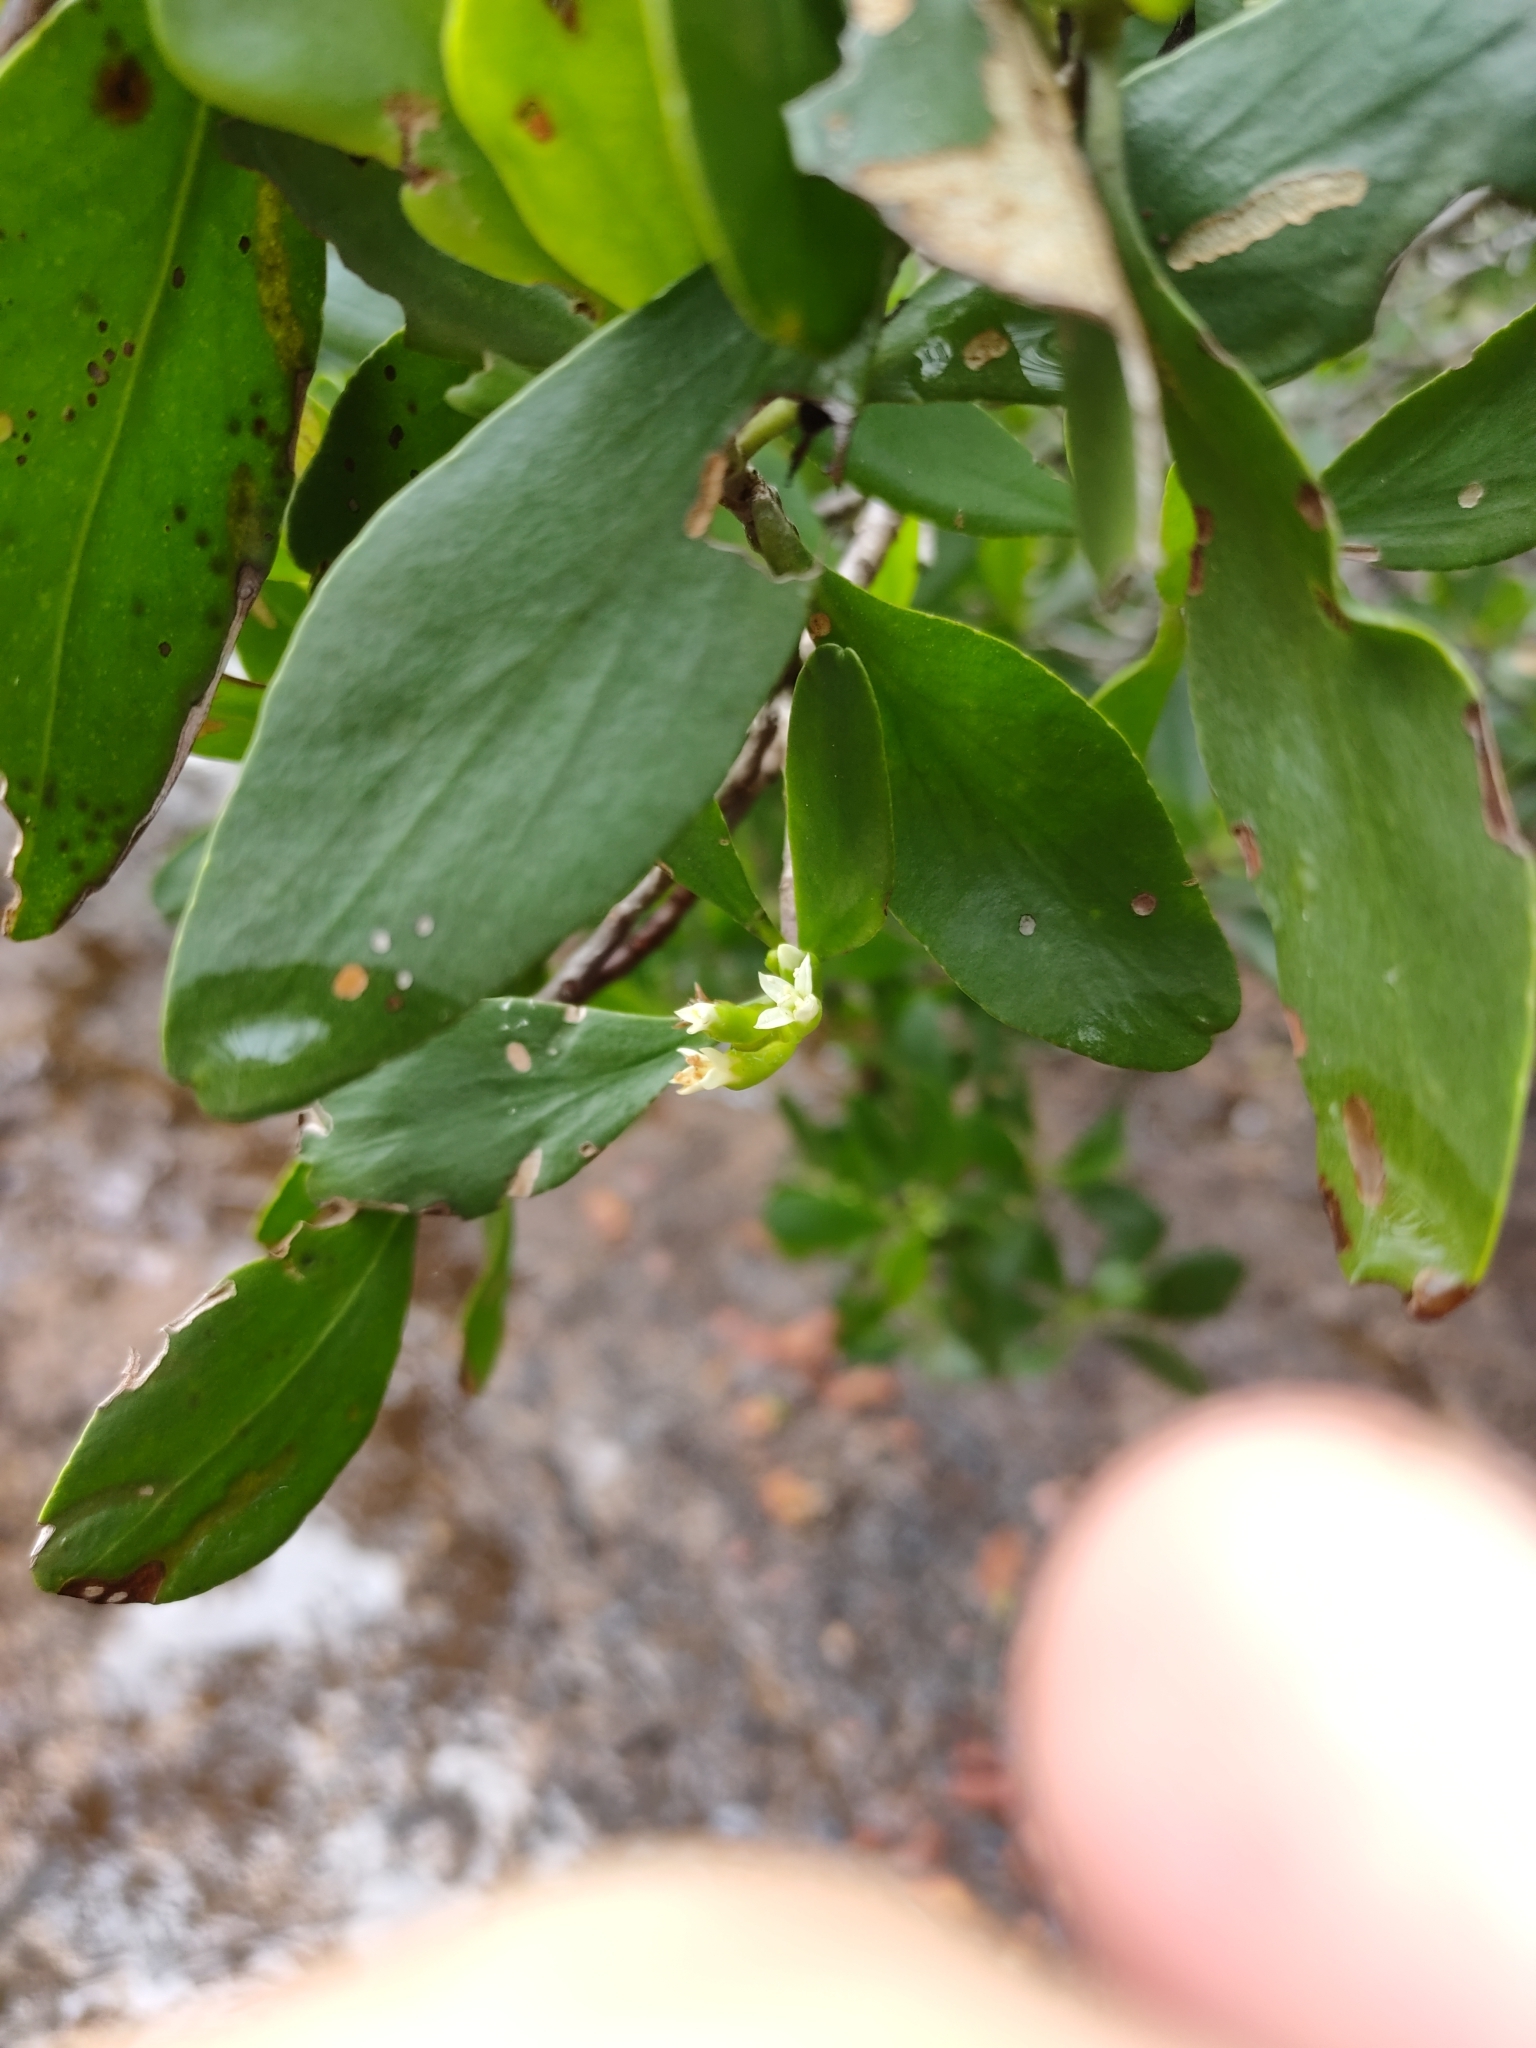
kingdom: Plantae
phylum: Tracheophyta
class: Magnoliopsida
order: Myrtales
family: Combretaceae
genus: Lumnitzera
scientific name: Lumnitzera racemosa
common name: White-flowered black mangrove
